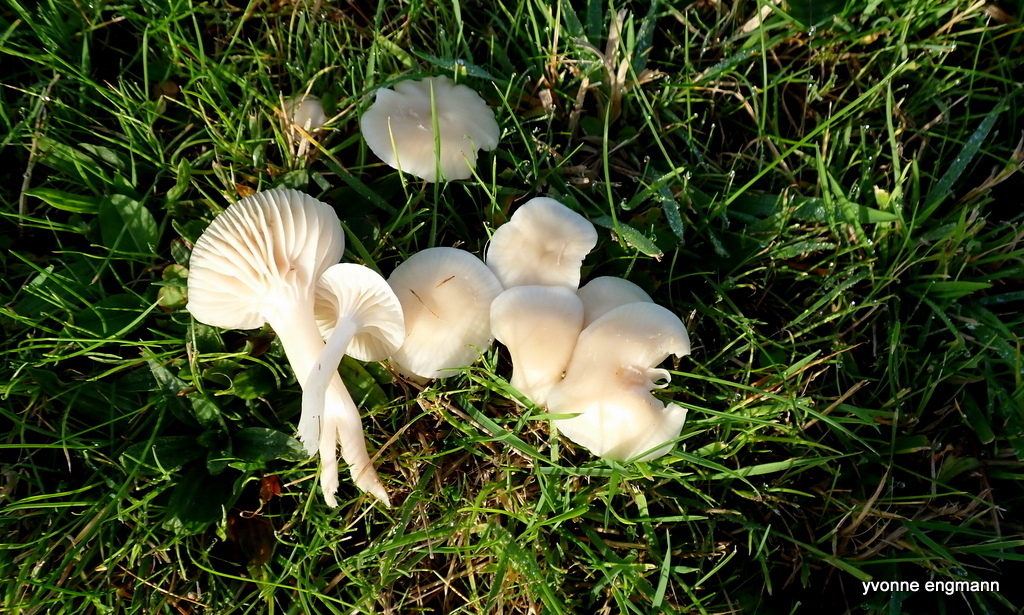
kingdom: Fungi
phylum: Basidiomycota
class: Agaricomycetes
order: Agaricales
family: Hygrophoraceae
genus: Cuphophyllus
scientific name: Cuphophyllus virgineus
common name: Snowy waxcap
